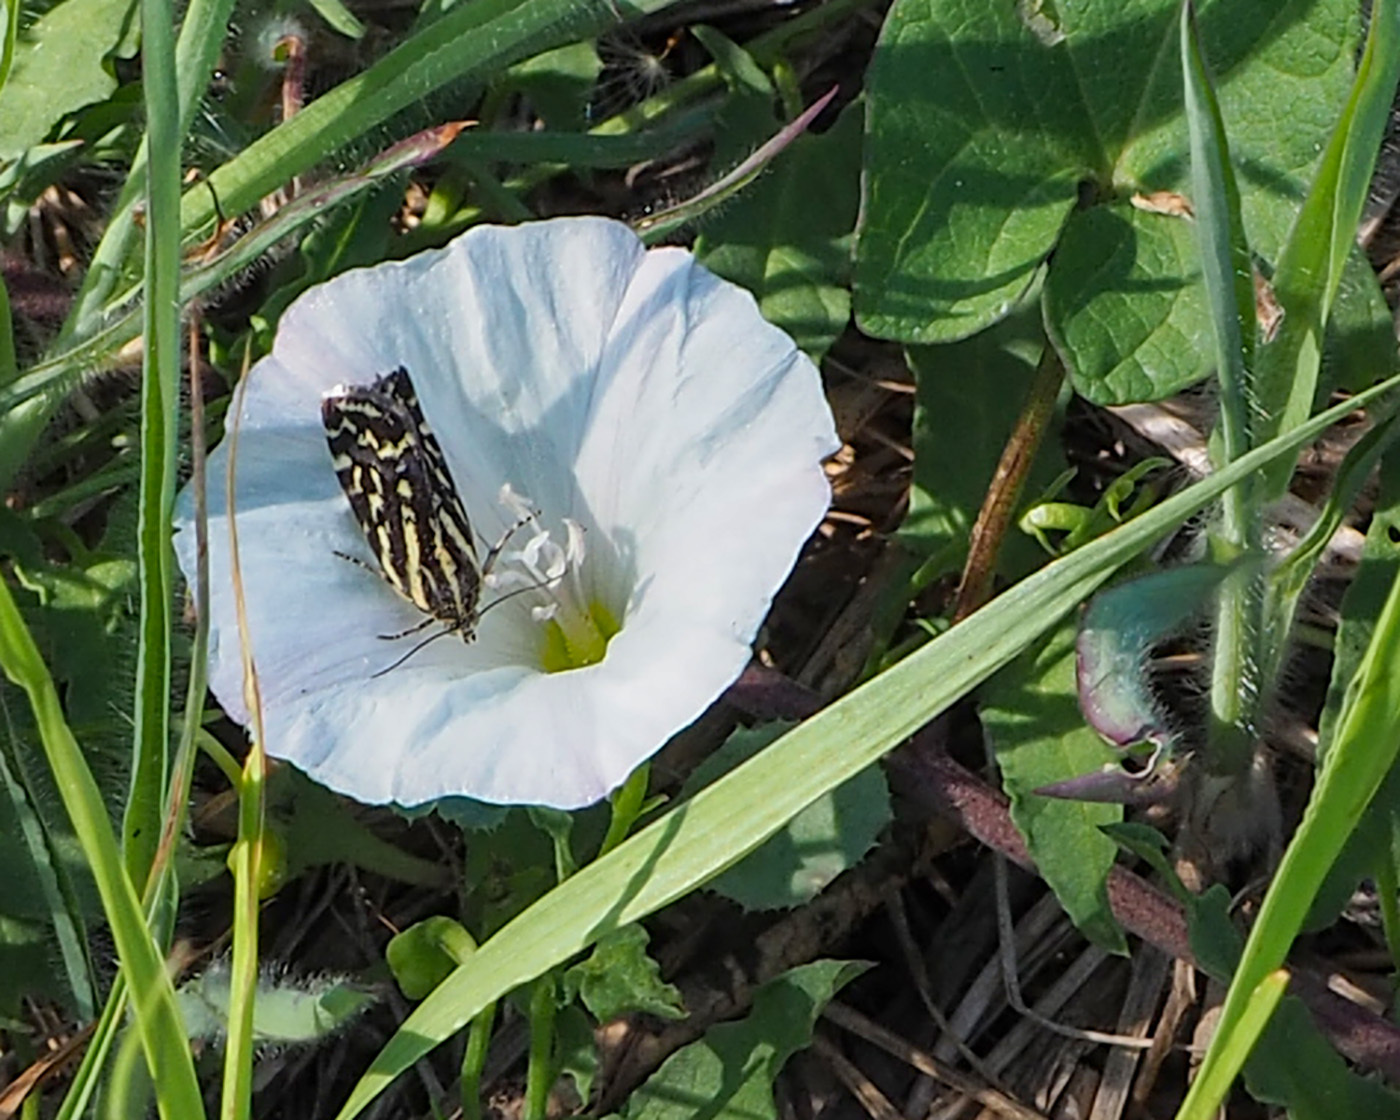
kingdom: Animalia
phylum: Arthropoda
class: Insecta
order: Lepidoptera
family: Noctuidae
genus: Acontia
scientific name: Acontia trabealis
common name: Spotted sulphur
